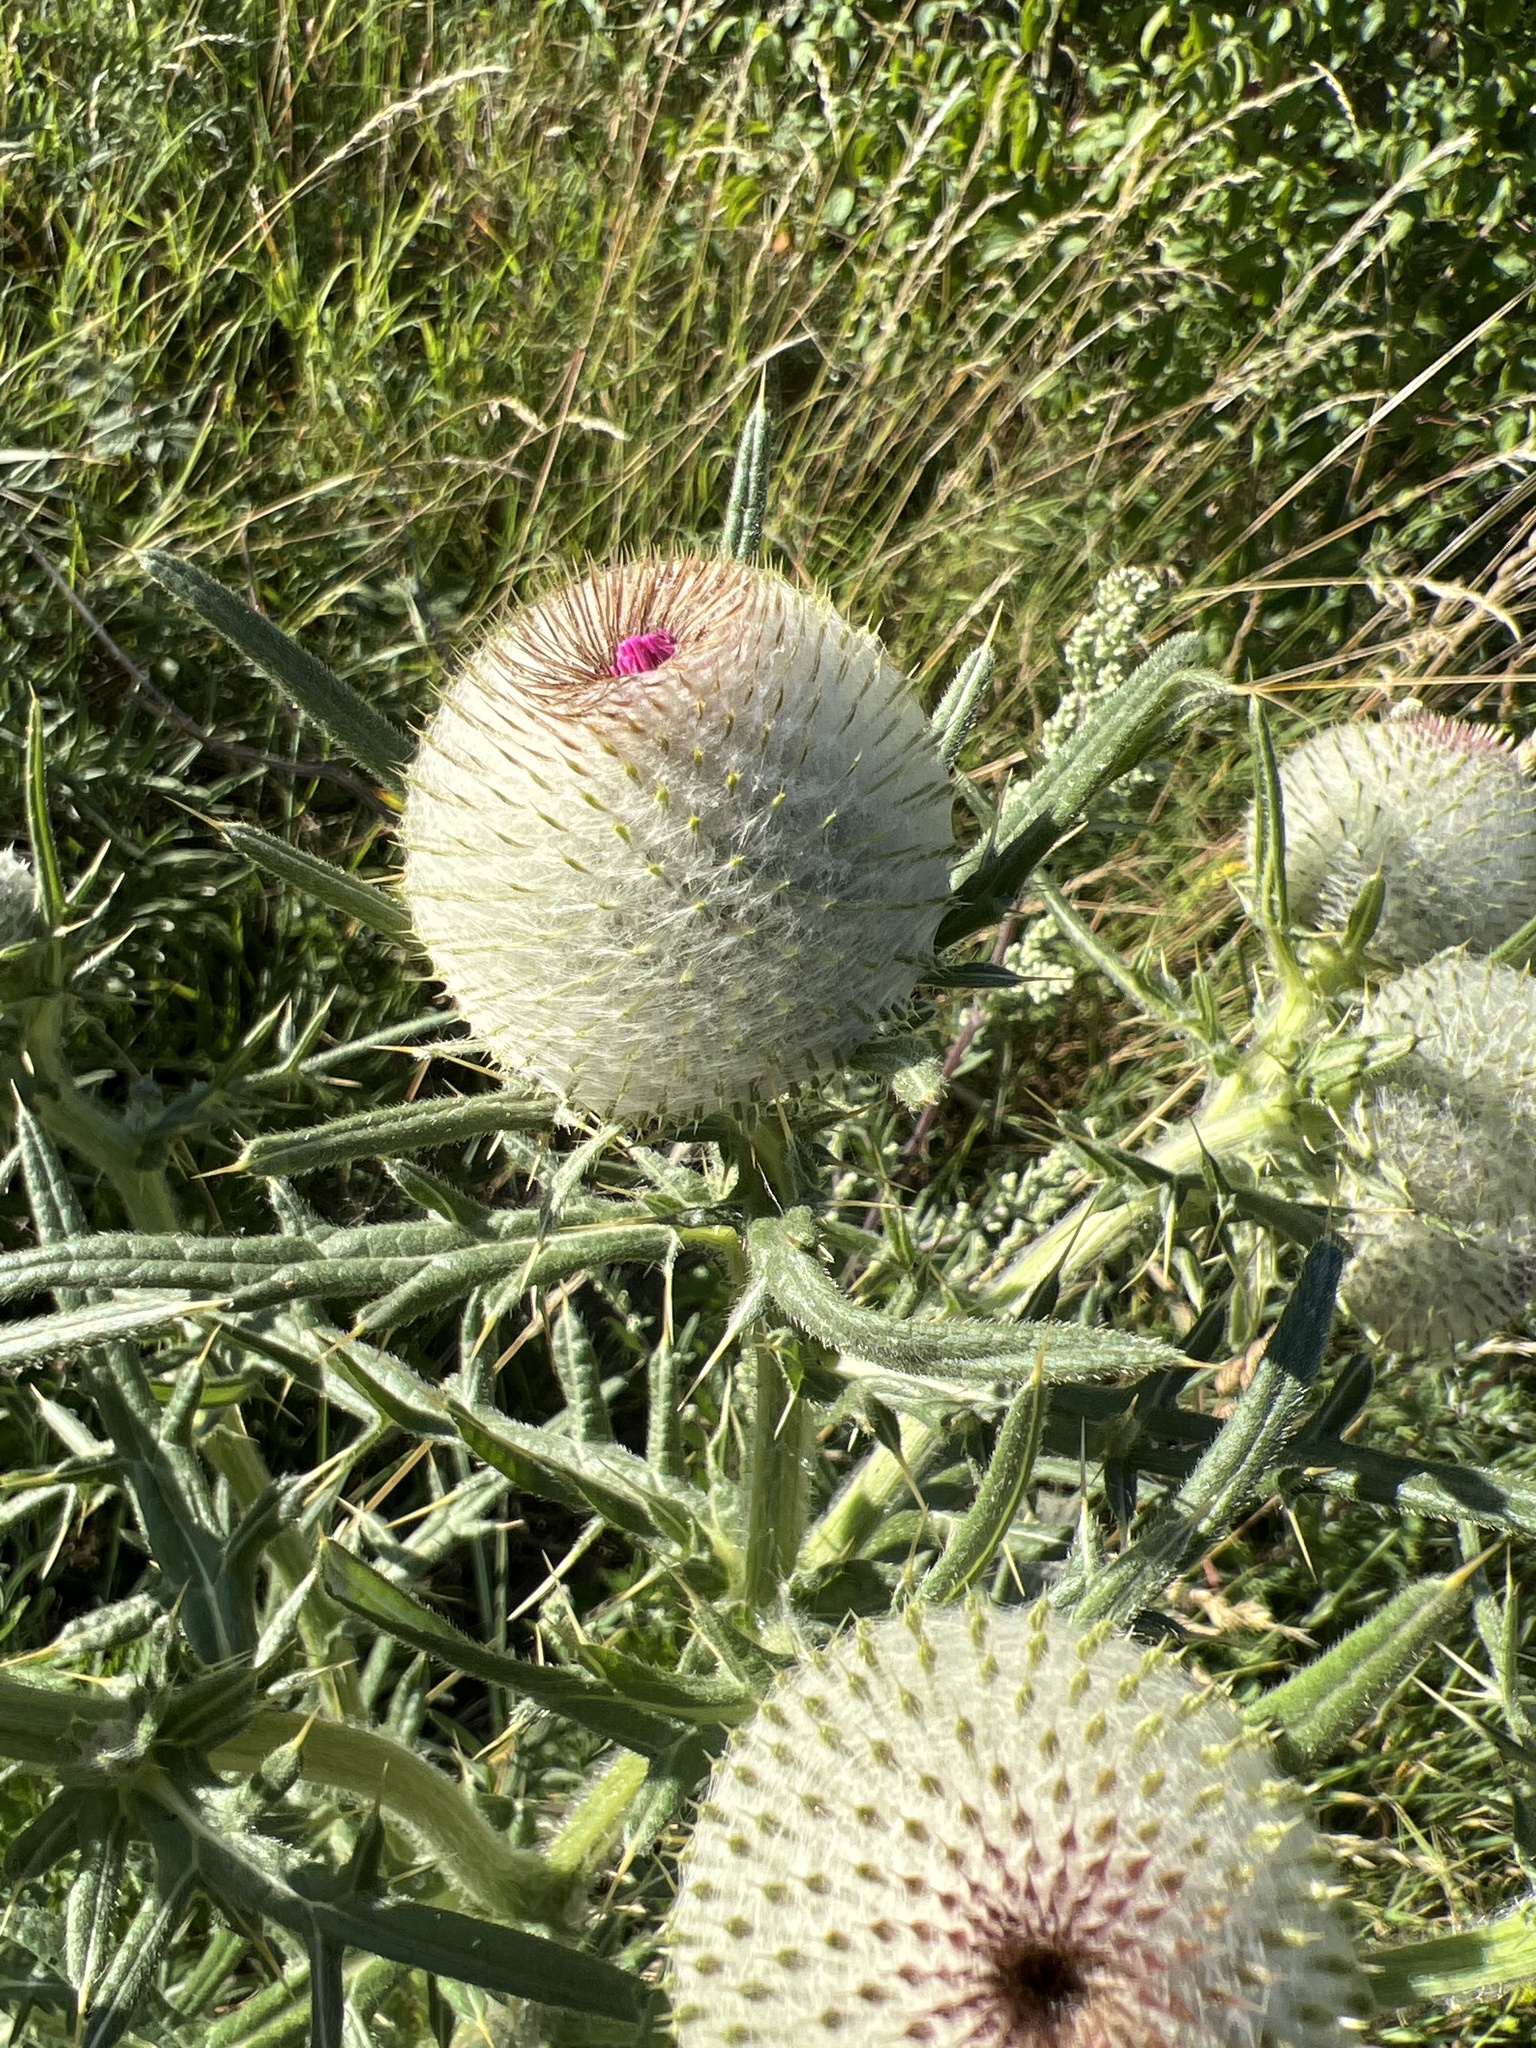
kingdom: Plantae
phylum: Tracheophyta
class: Magnoliopsida
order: Asterales
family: Asteraceae
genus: Lophiolepis
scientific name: Lophiolepis eriophora
